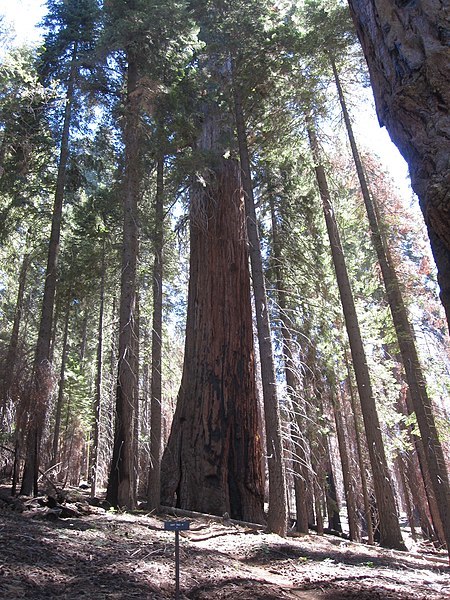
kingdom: Plantae
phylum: Tracheophyta
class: Pinopsida
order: Pinales
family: Cupressaceae
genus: Sequoiadendron
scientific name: Sequoiadendron giganteum
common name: Wellingtonia
